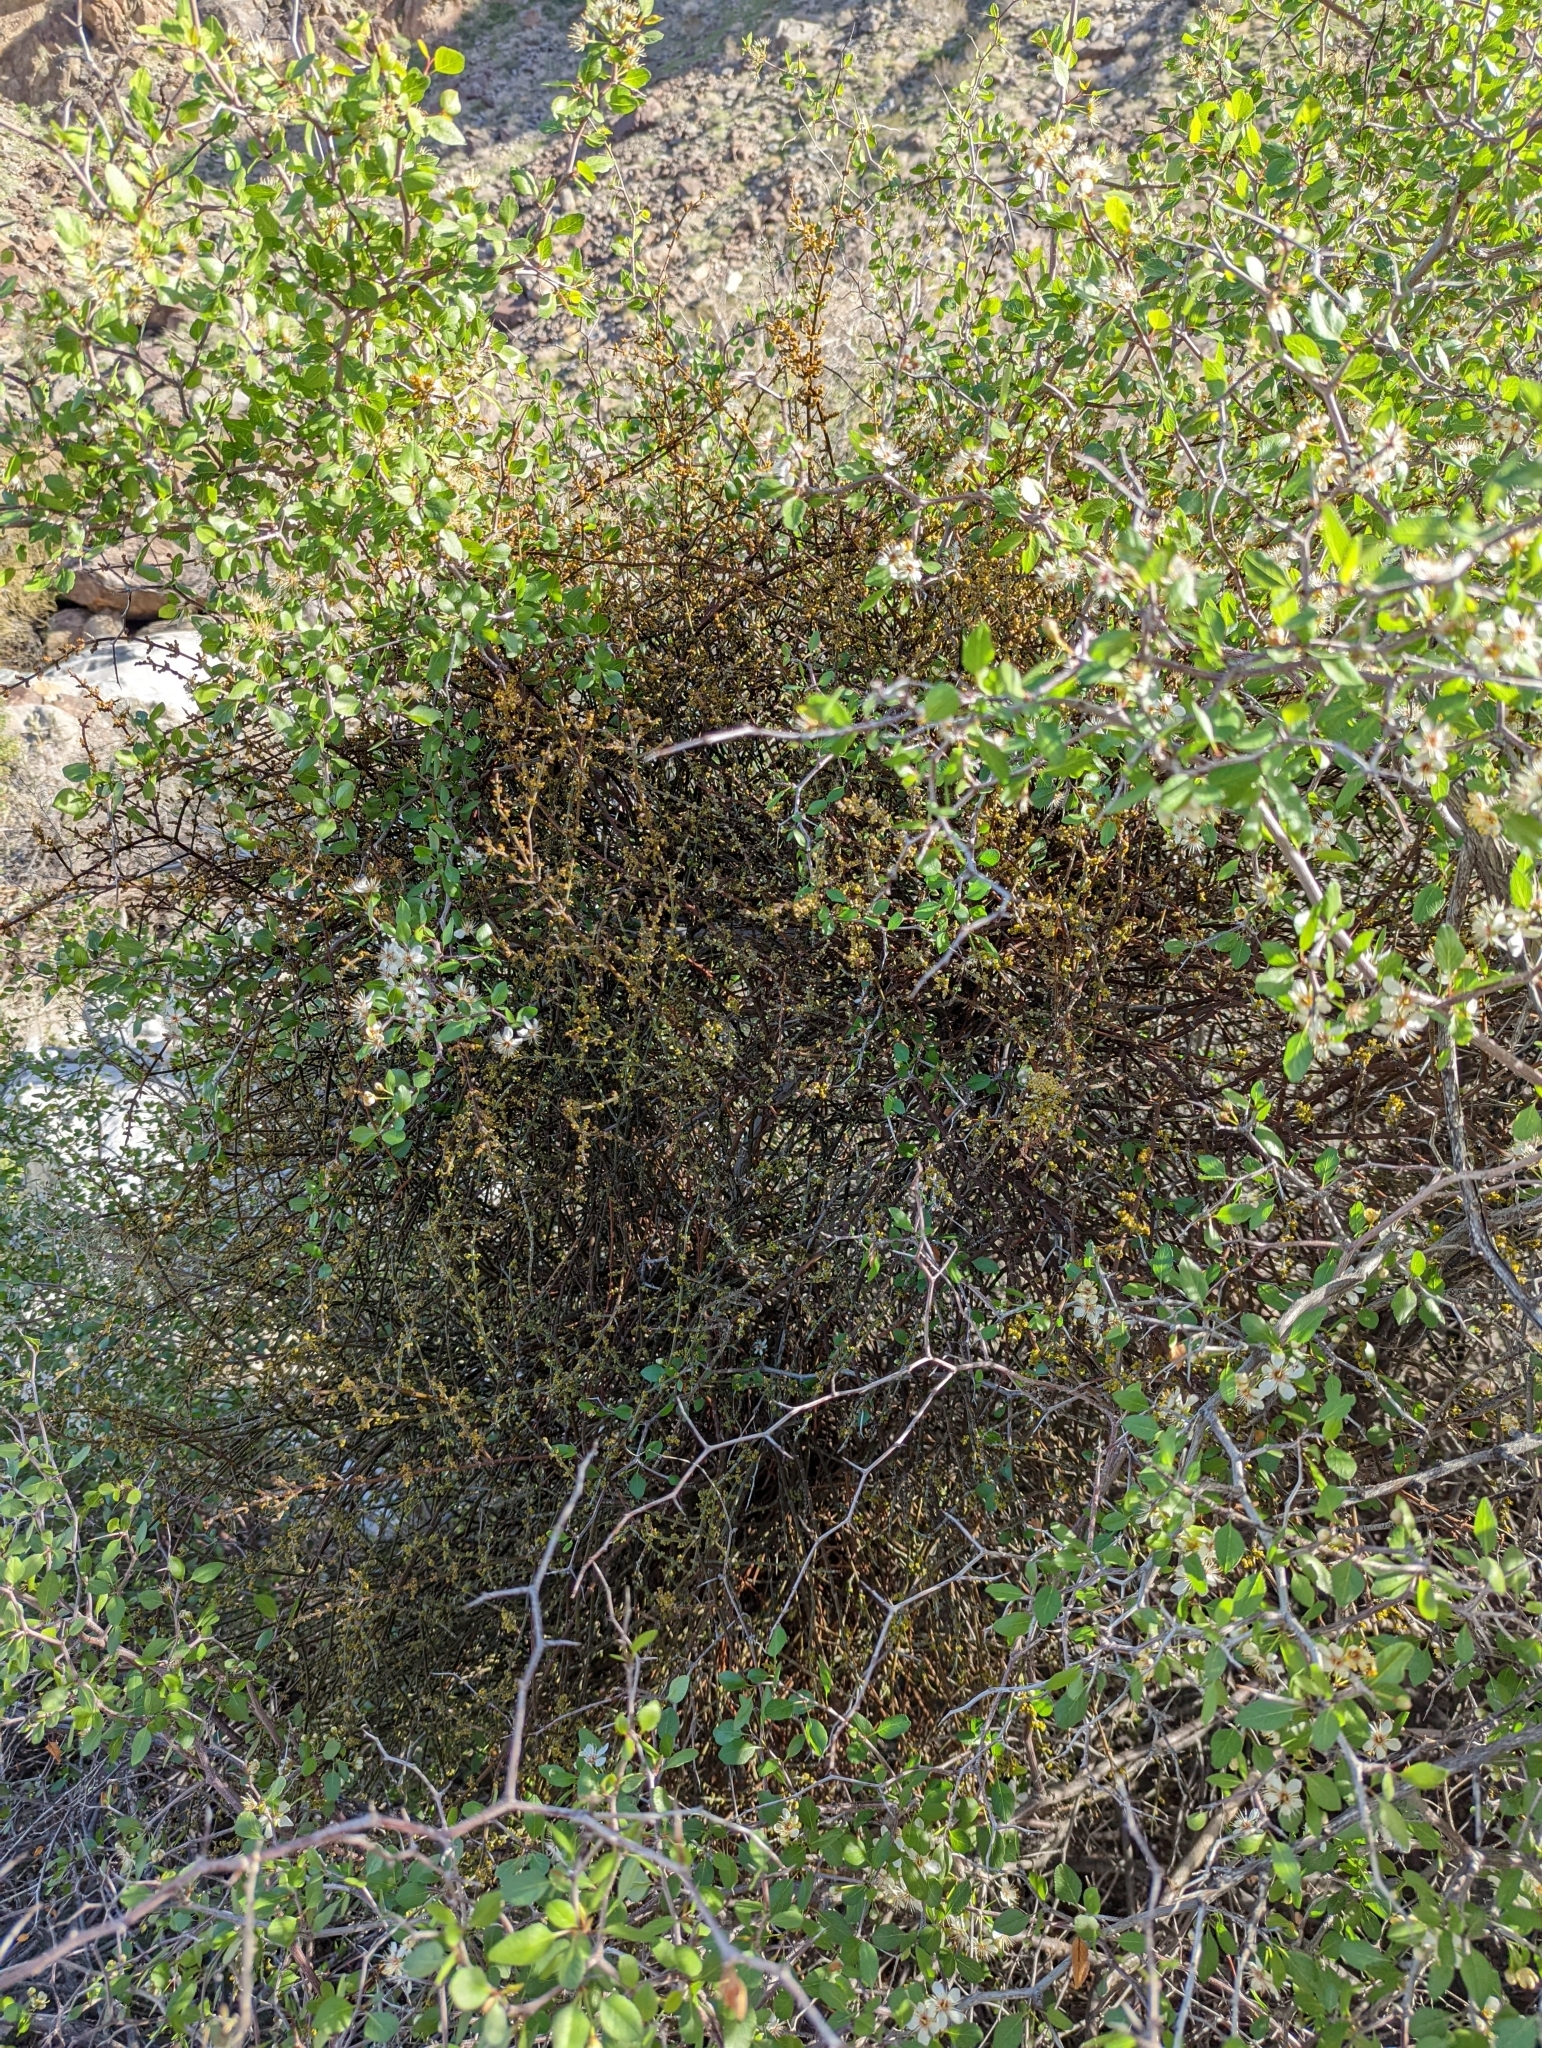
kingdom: Plantae
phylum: Tracheophyta
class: Magnoliopsida
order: Santalales
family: Viscaceae
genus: Phoradendron
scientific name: Phoradendron californicum
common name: Acacia mistletoe
